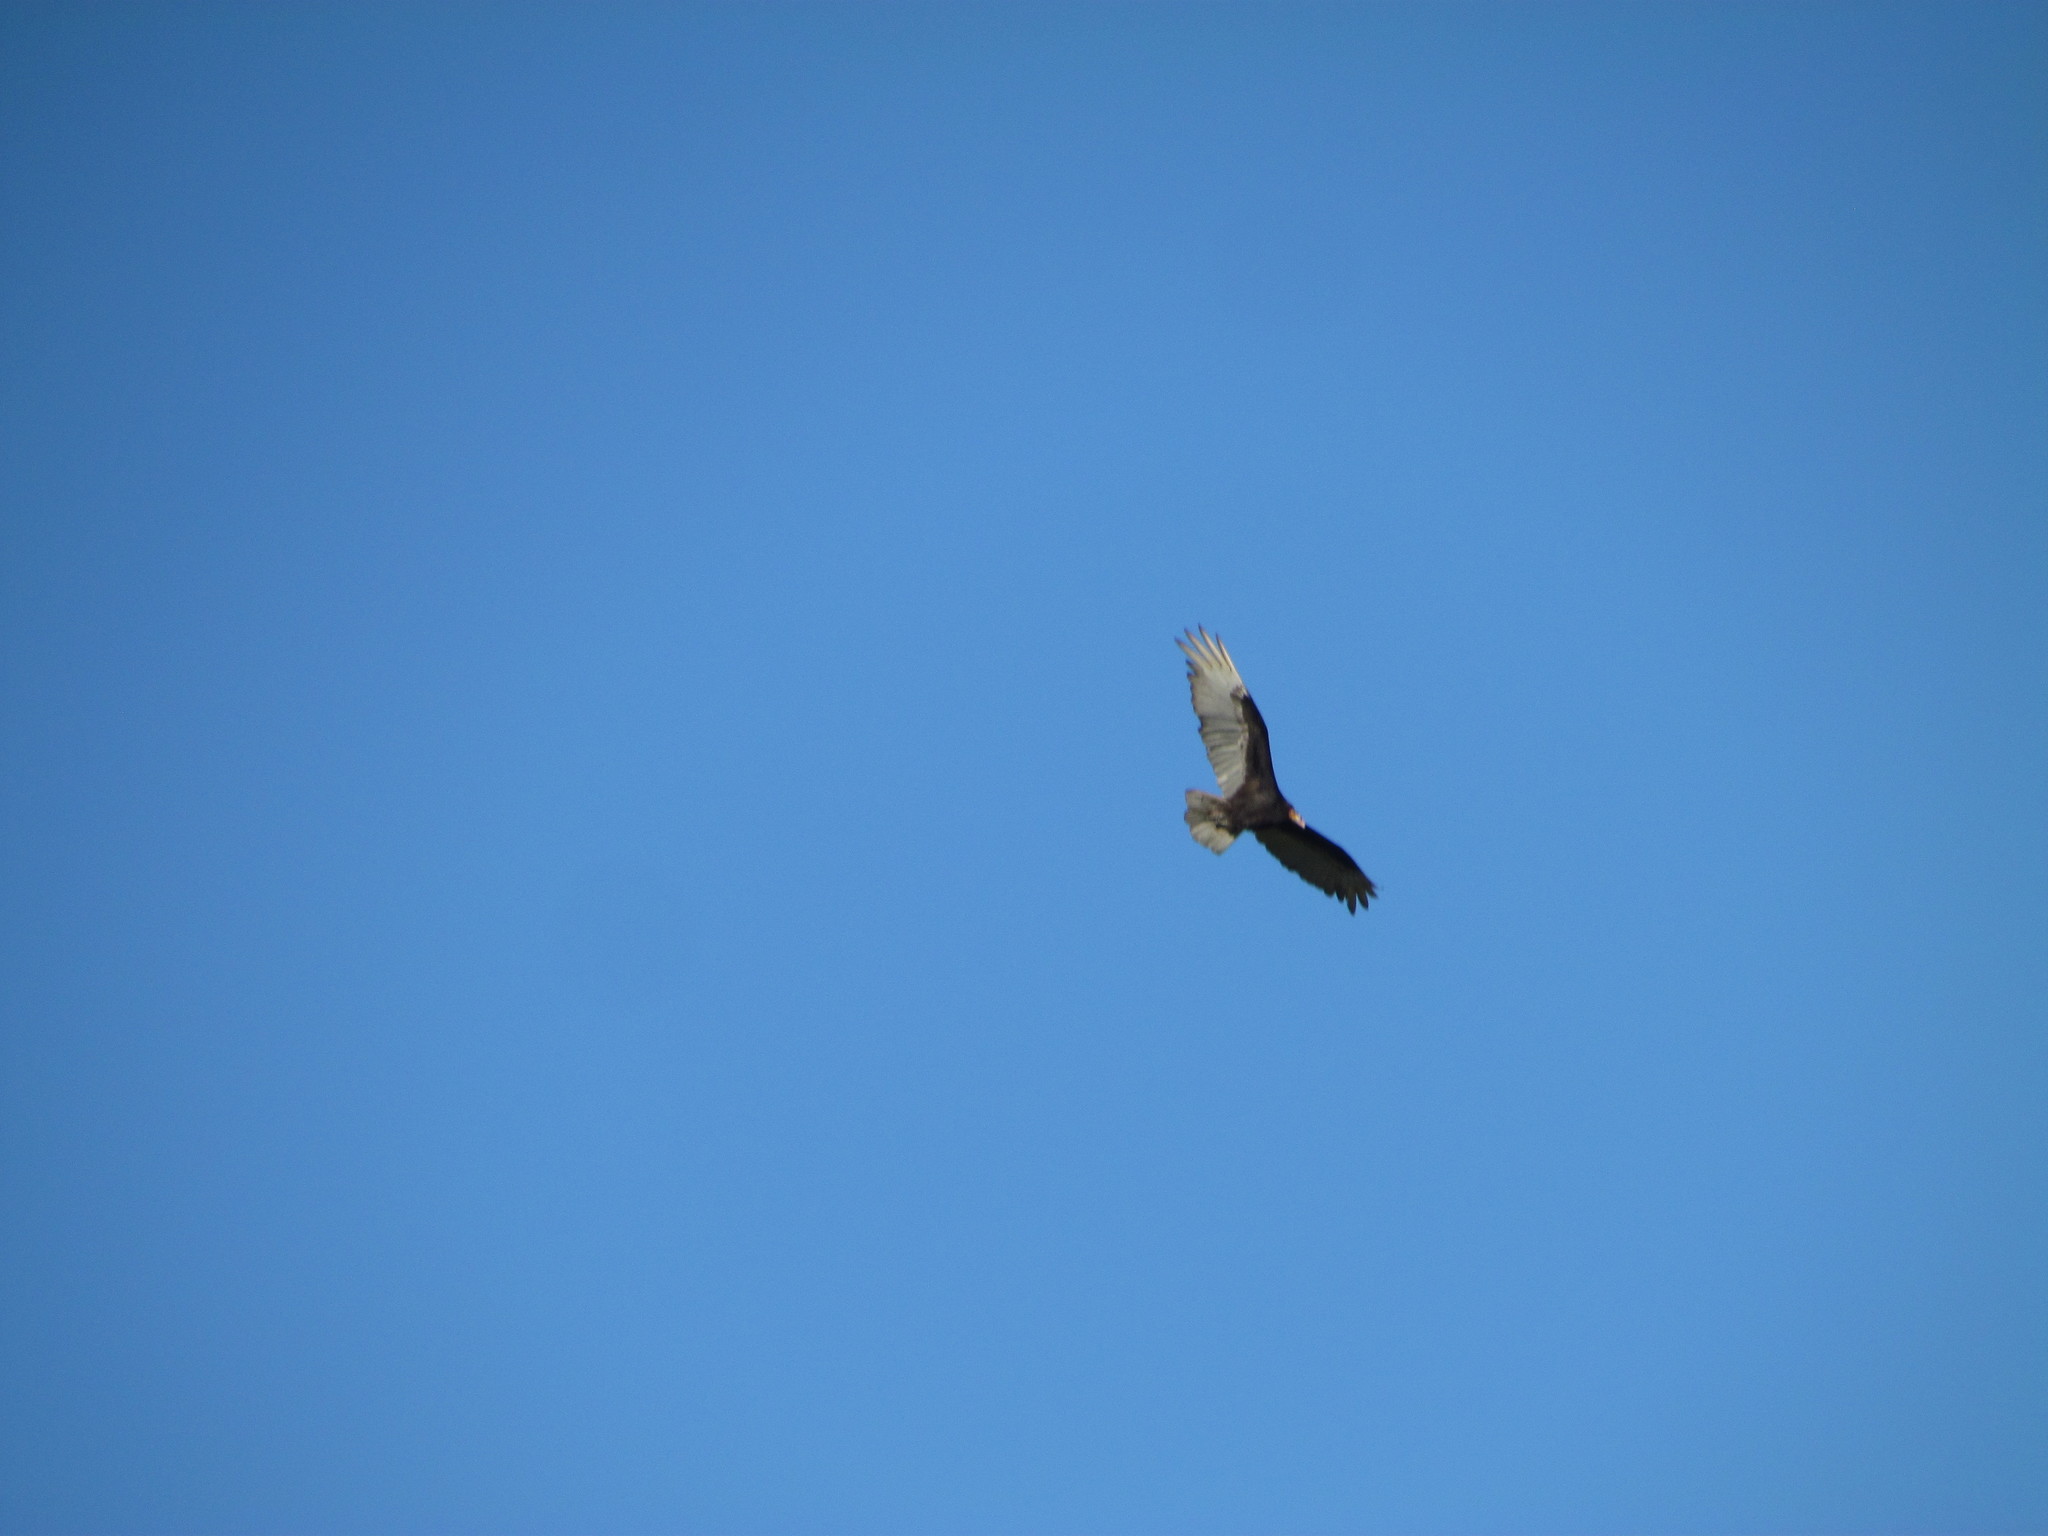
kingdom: Animalia
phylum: Chordata
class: Aves
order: Accipitriformes
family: Cathartidae
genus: Cathartes
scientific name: Cathartes burrovianus
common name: Lesser yellow-headed vulture
